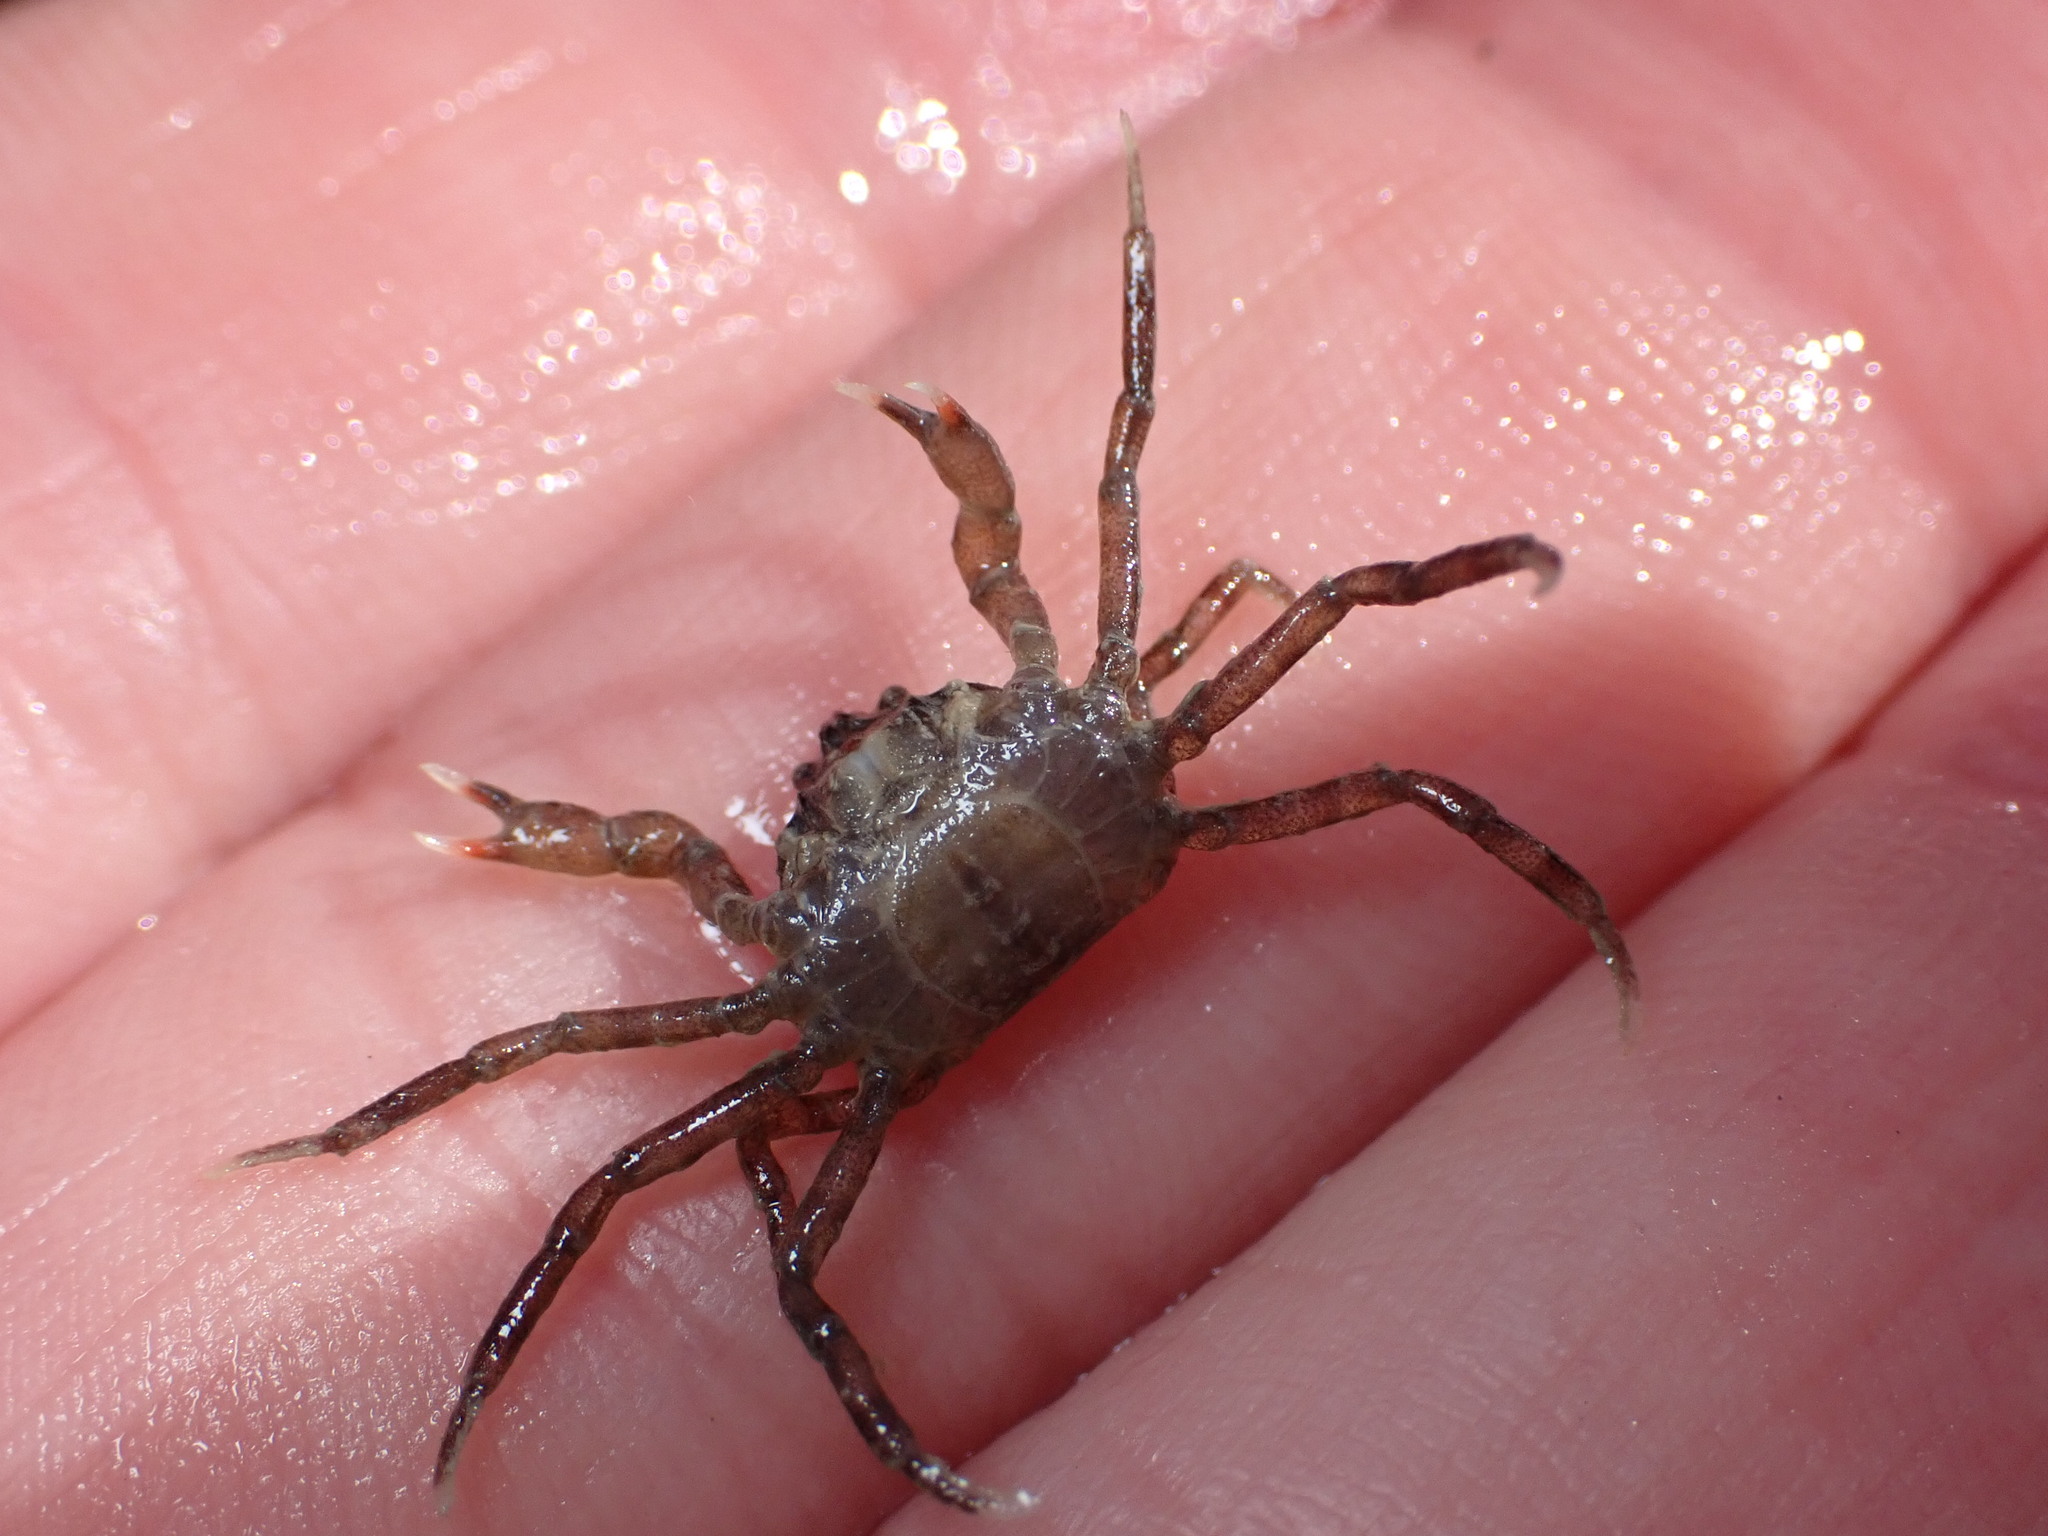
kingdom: Animalia
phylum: Arthropoda
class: Malacostraca
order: Decapoda
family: Hymenosomatidae
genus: Halicarcinus
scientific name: Halicarcinus quoyi
